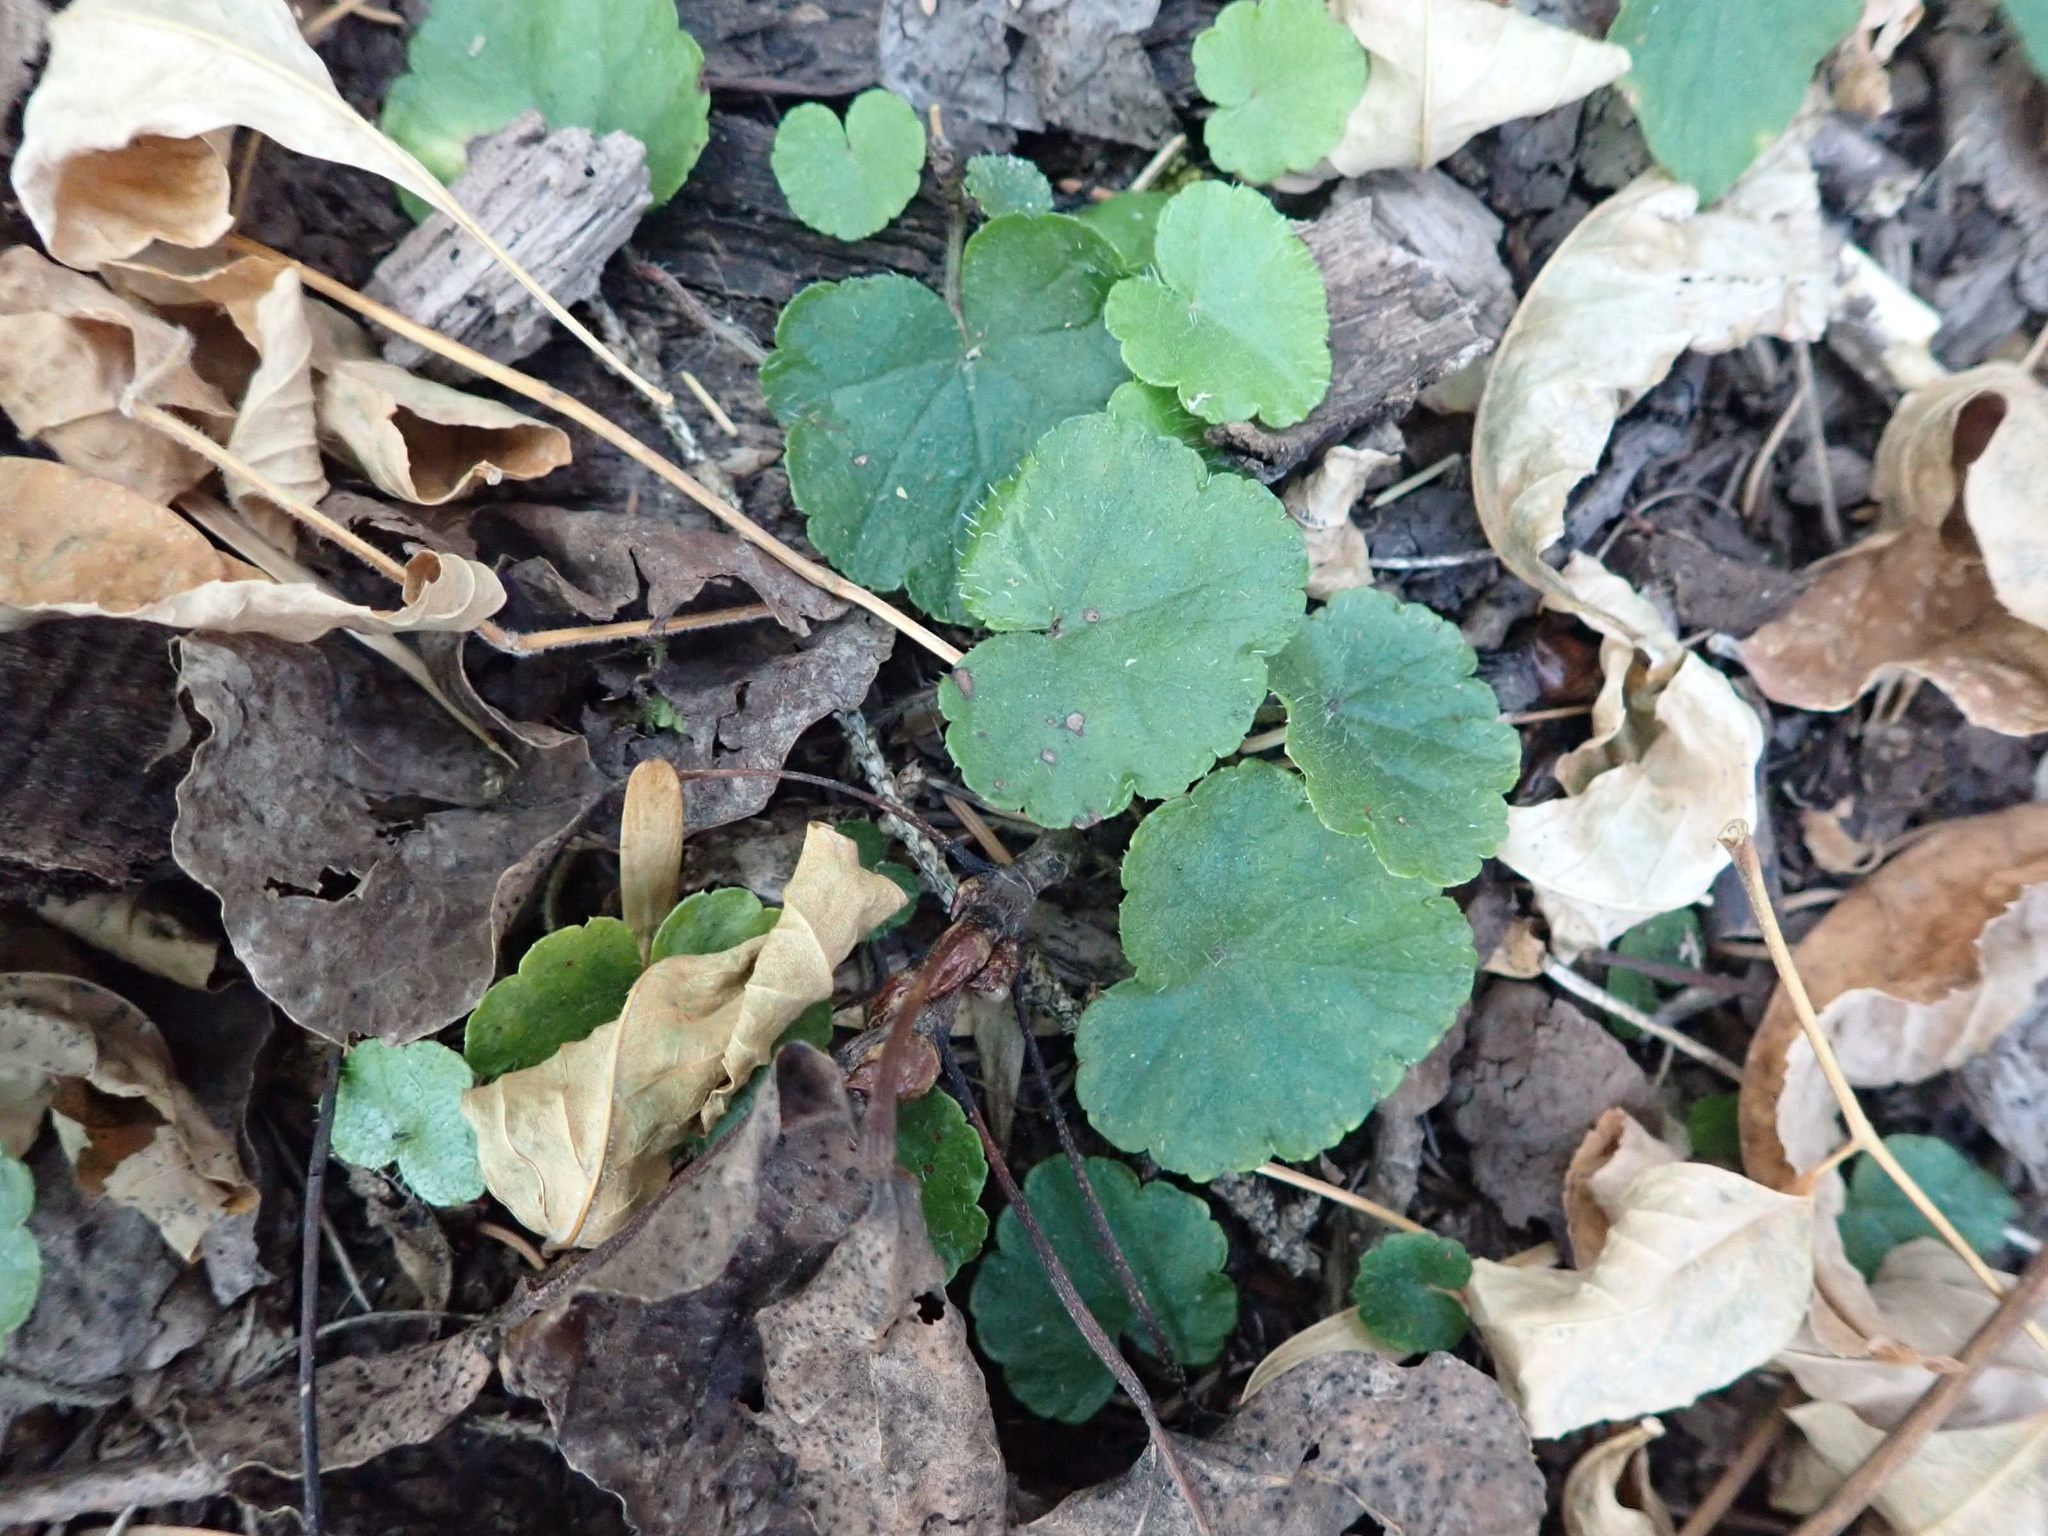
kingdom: Plantae
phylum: Tracheophyta
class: Magnoliopsida
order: Saxifragales
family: Saxifragaceae
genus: Mitella
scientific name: Mitella nuda
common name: Bare-stemmed bishop's-cap
